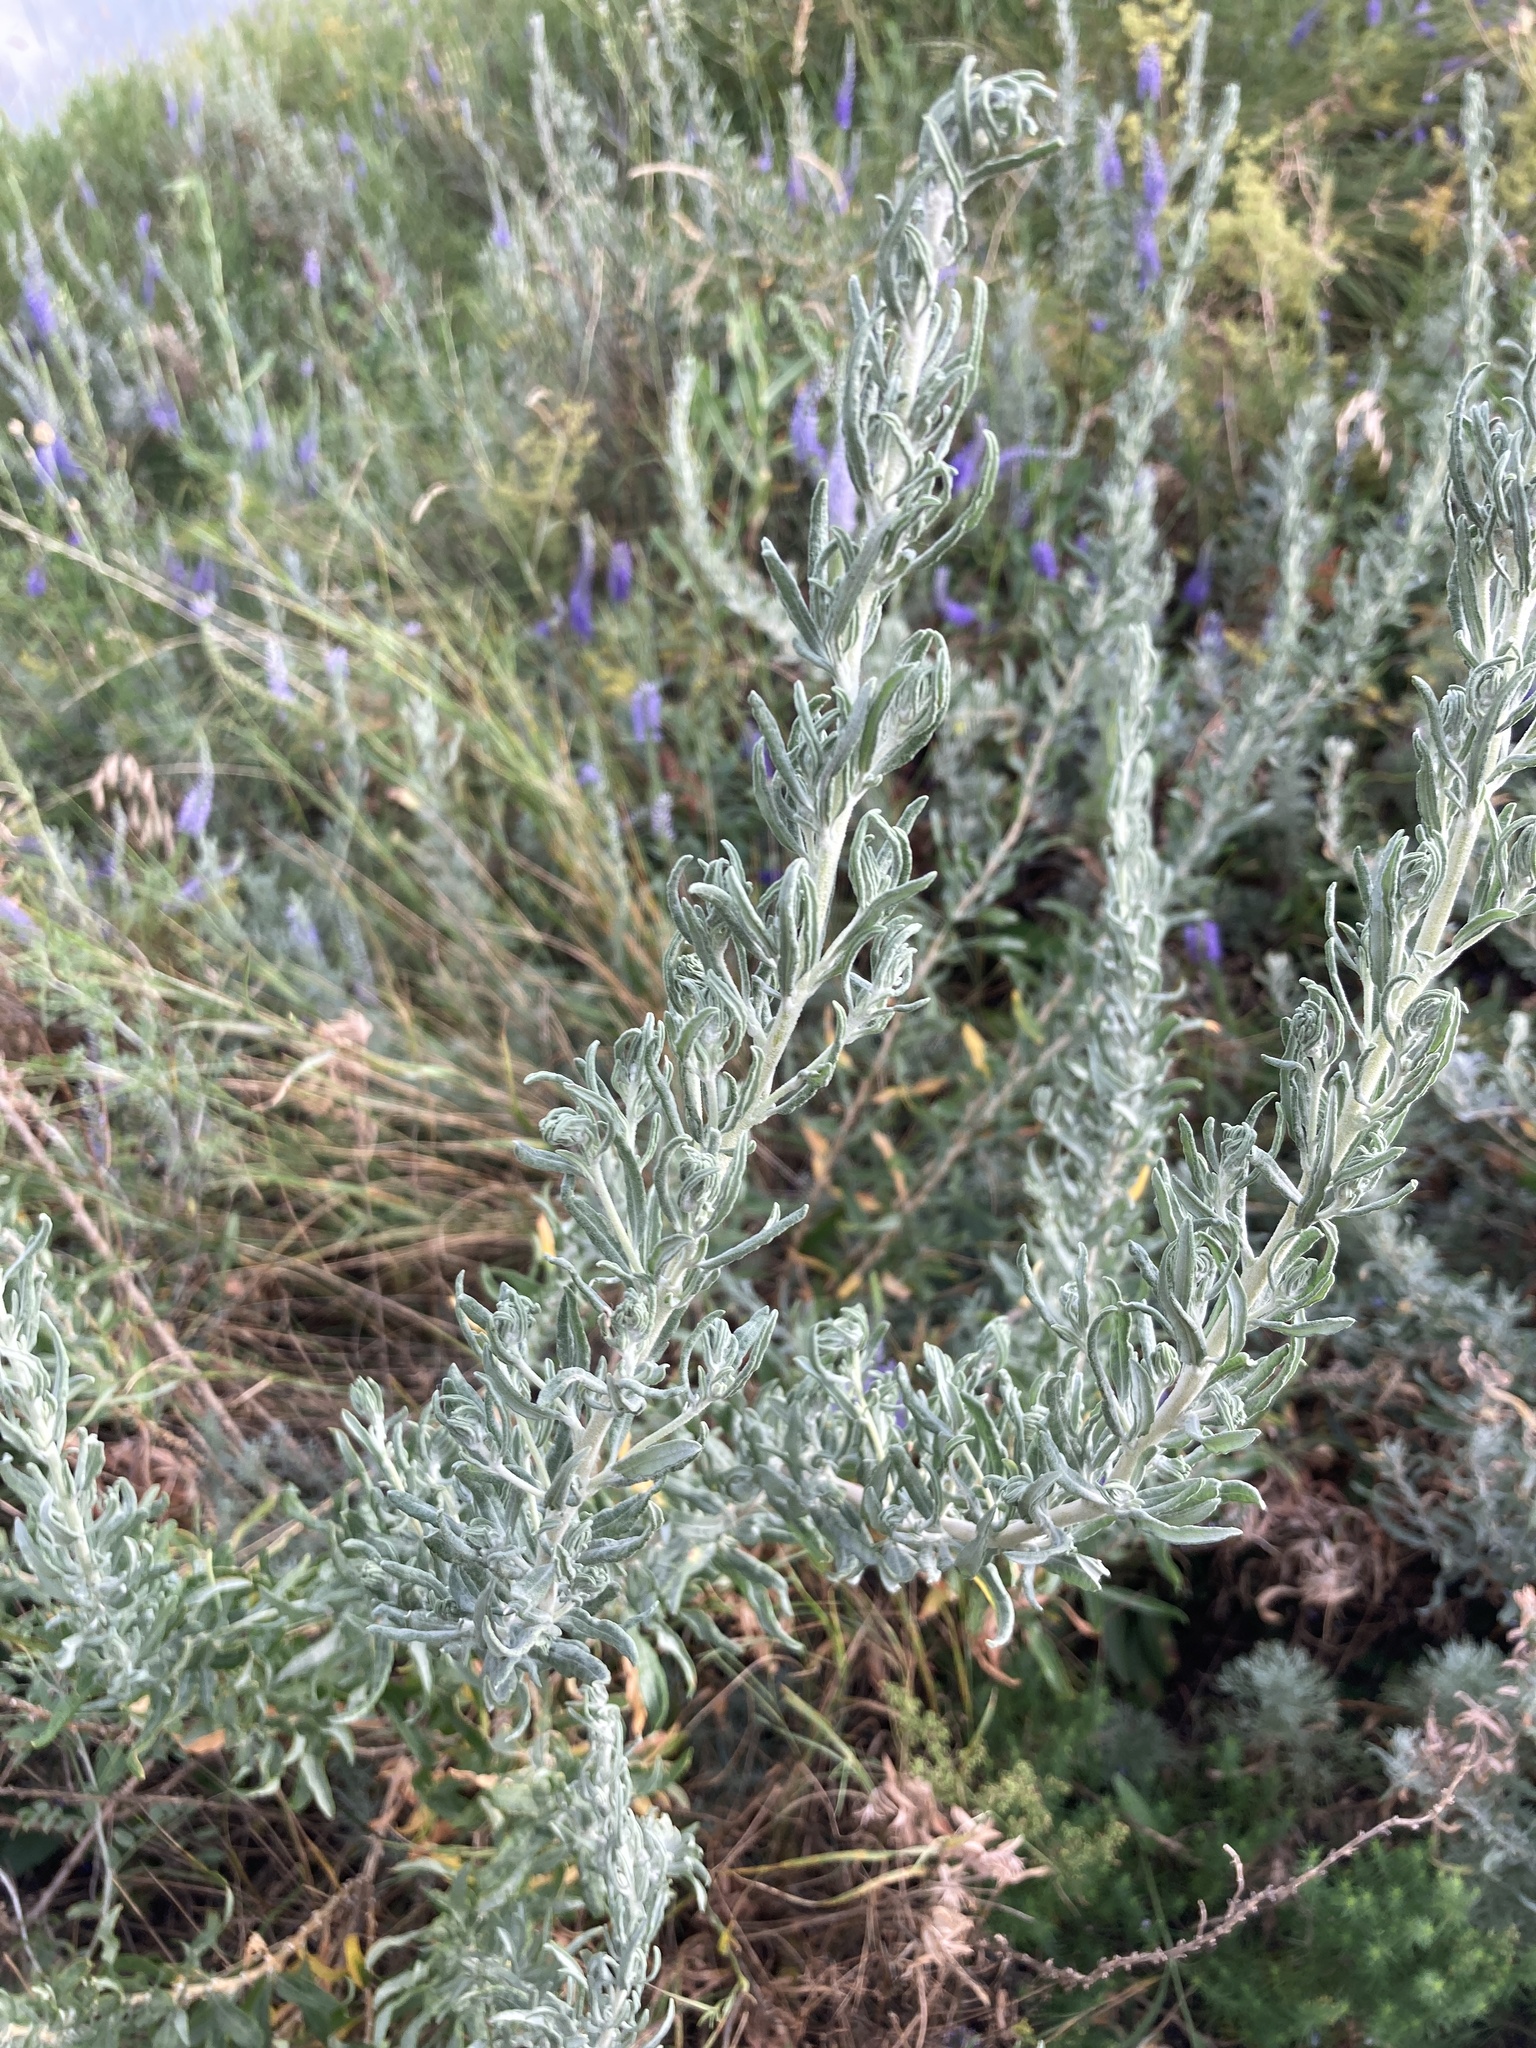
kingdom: Plantae
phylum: Tracheophyta
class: Magnoliopsida
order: Caryophyllales
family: Amaranthaceae
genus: Krascheninnikovia
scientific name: Krascheninnikovia ceratoides
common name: Pamirian winterfat
